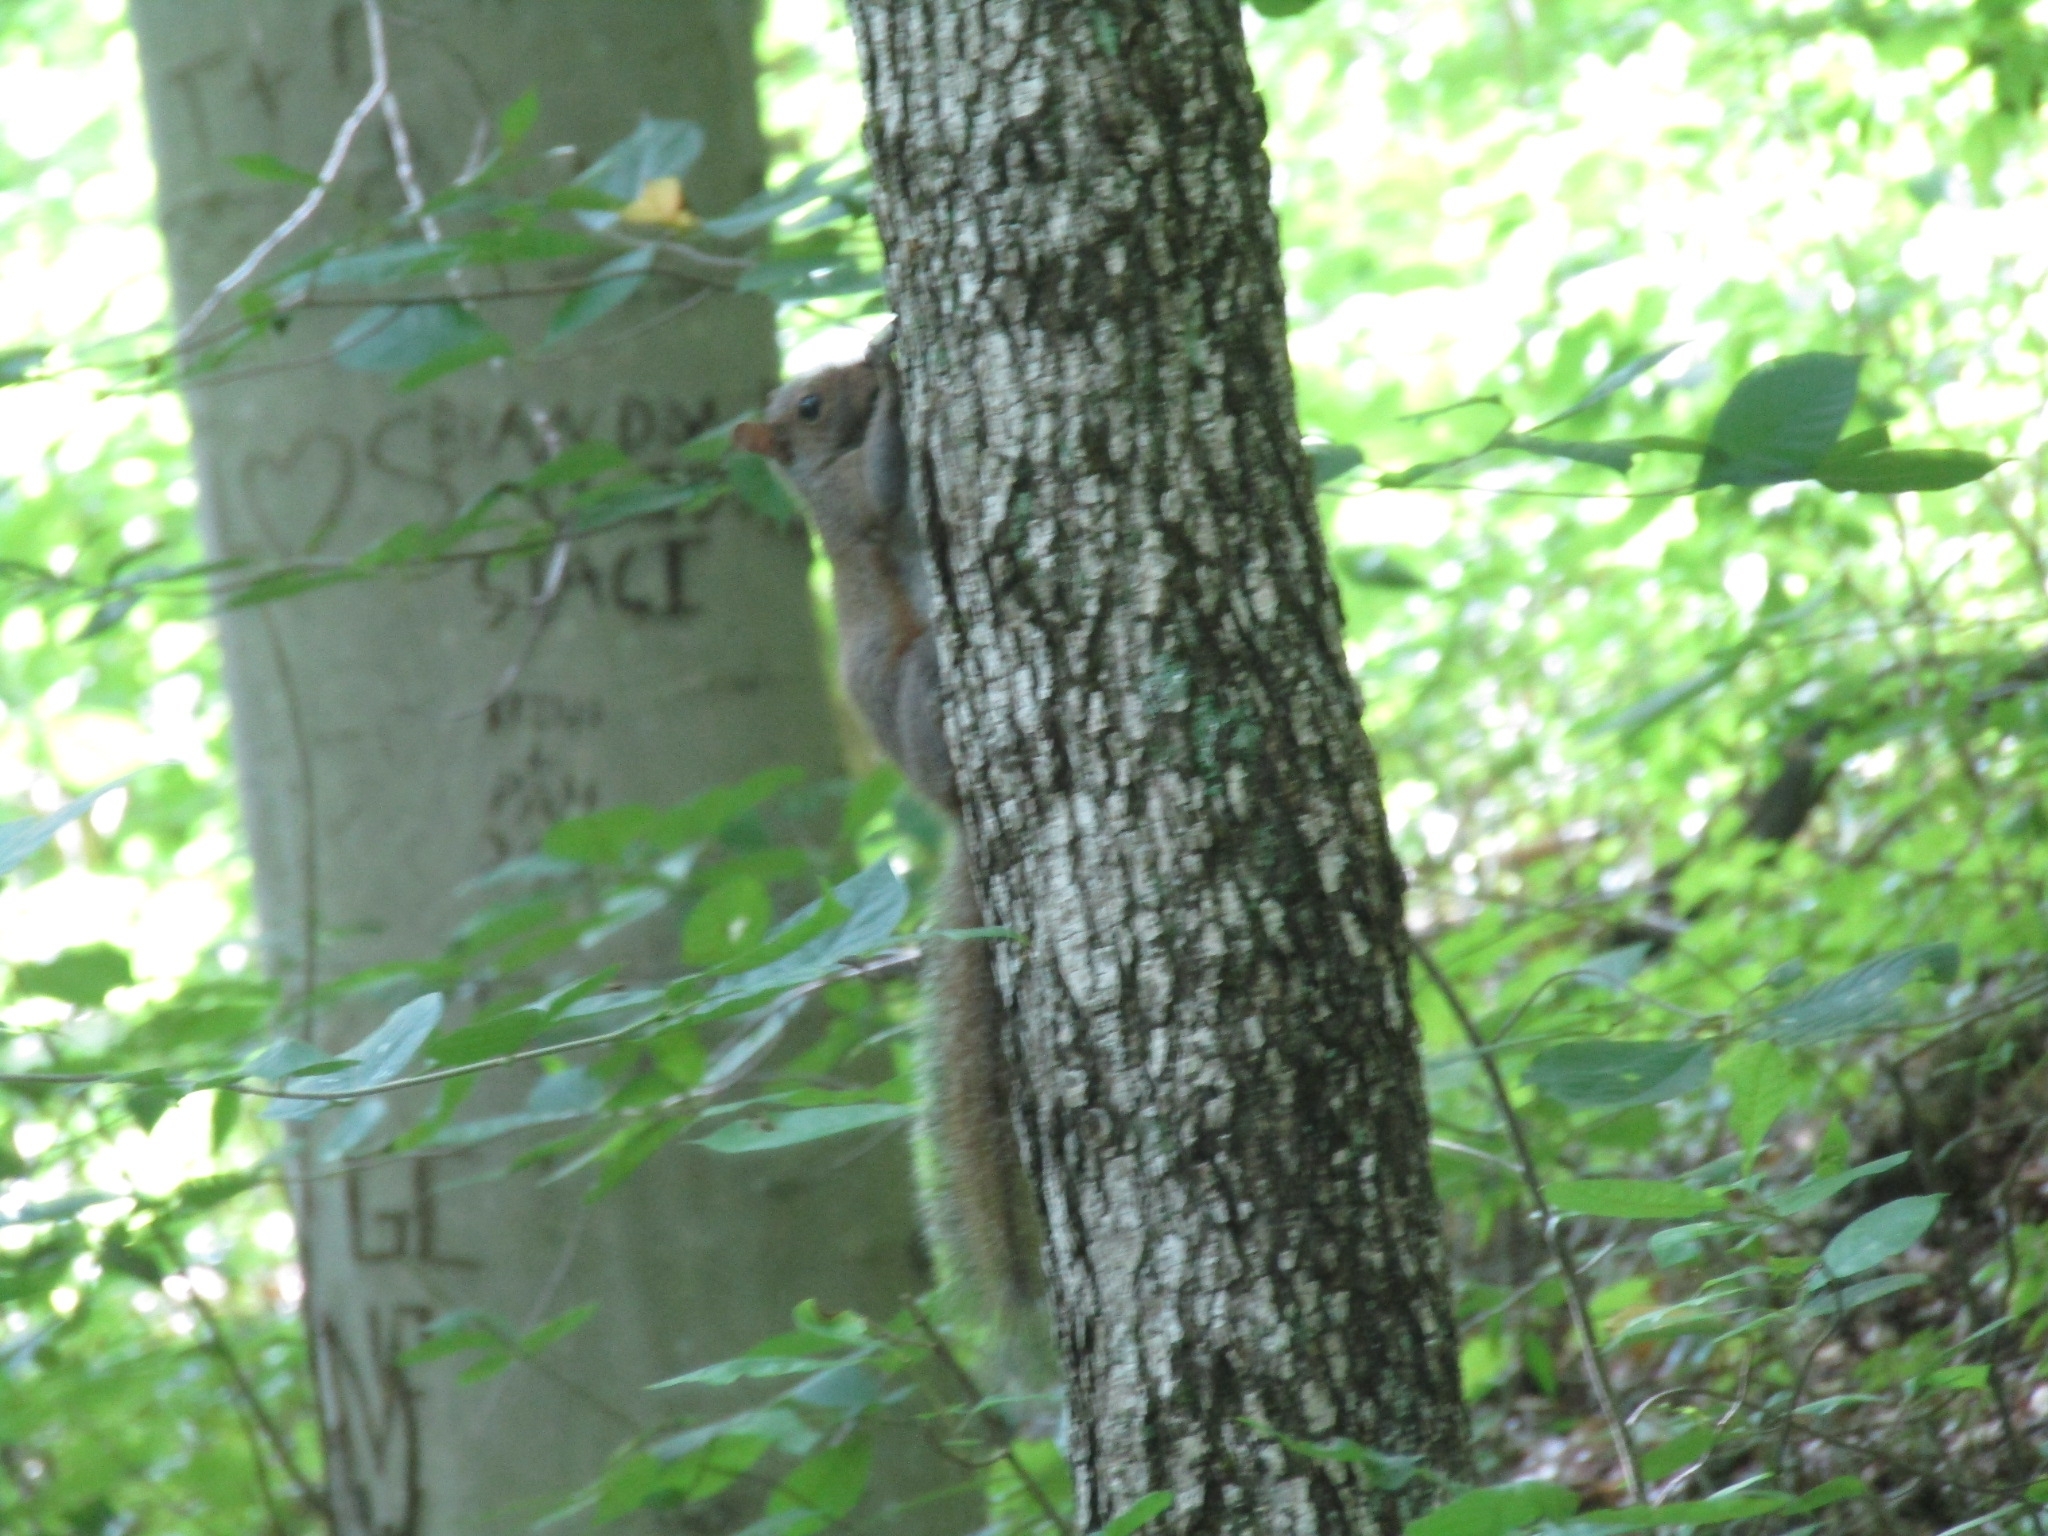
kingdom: Animalia
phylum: Chordata
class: Mammalia
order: Rodentia
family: Sciuridae
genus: Sciurus
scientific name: Sciurus carolinensis
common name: Eastern gray squirrel
